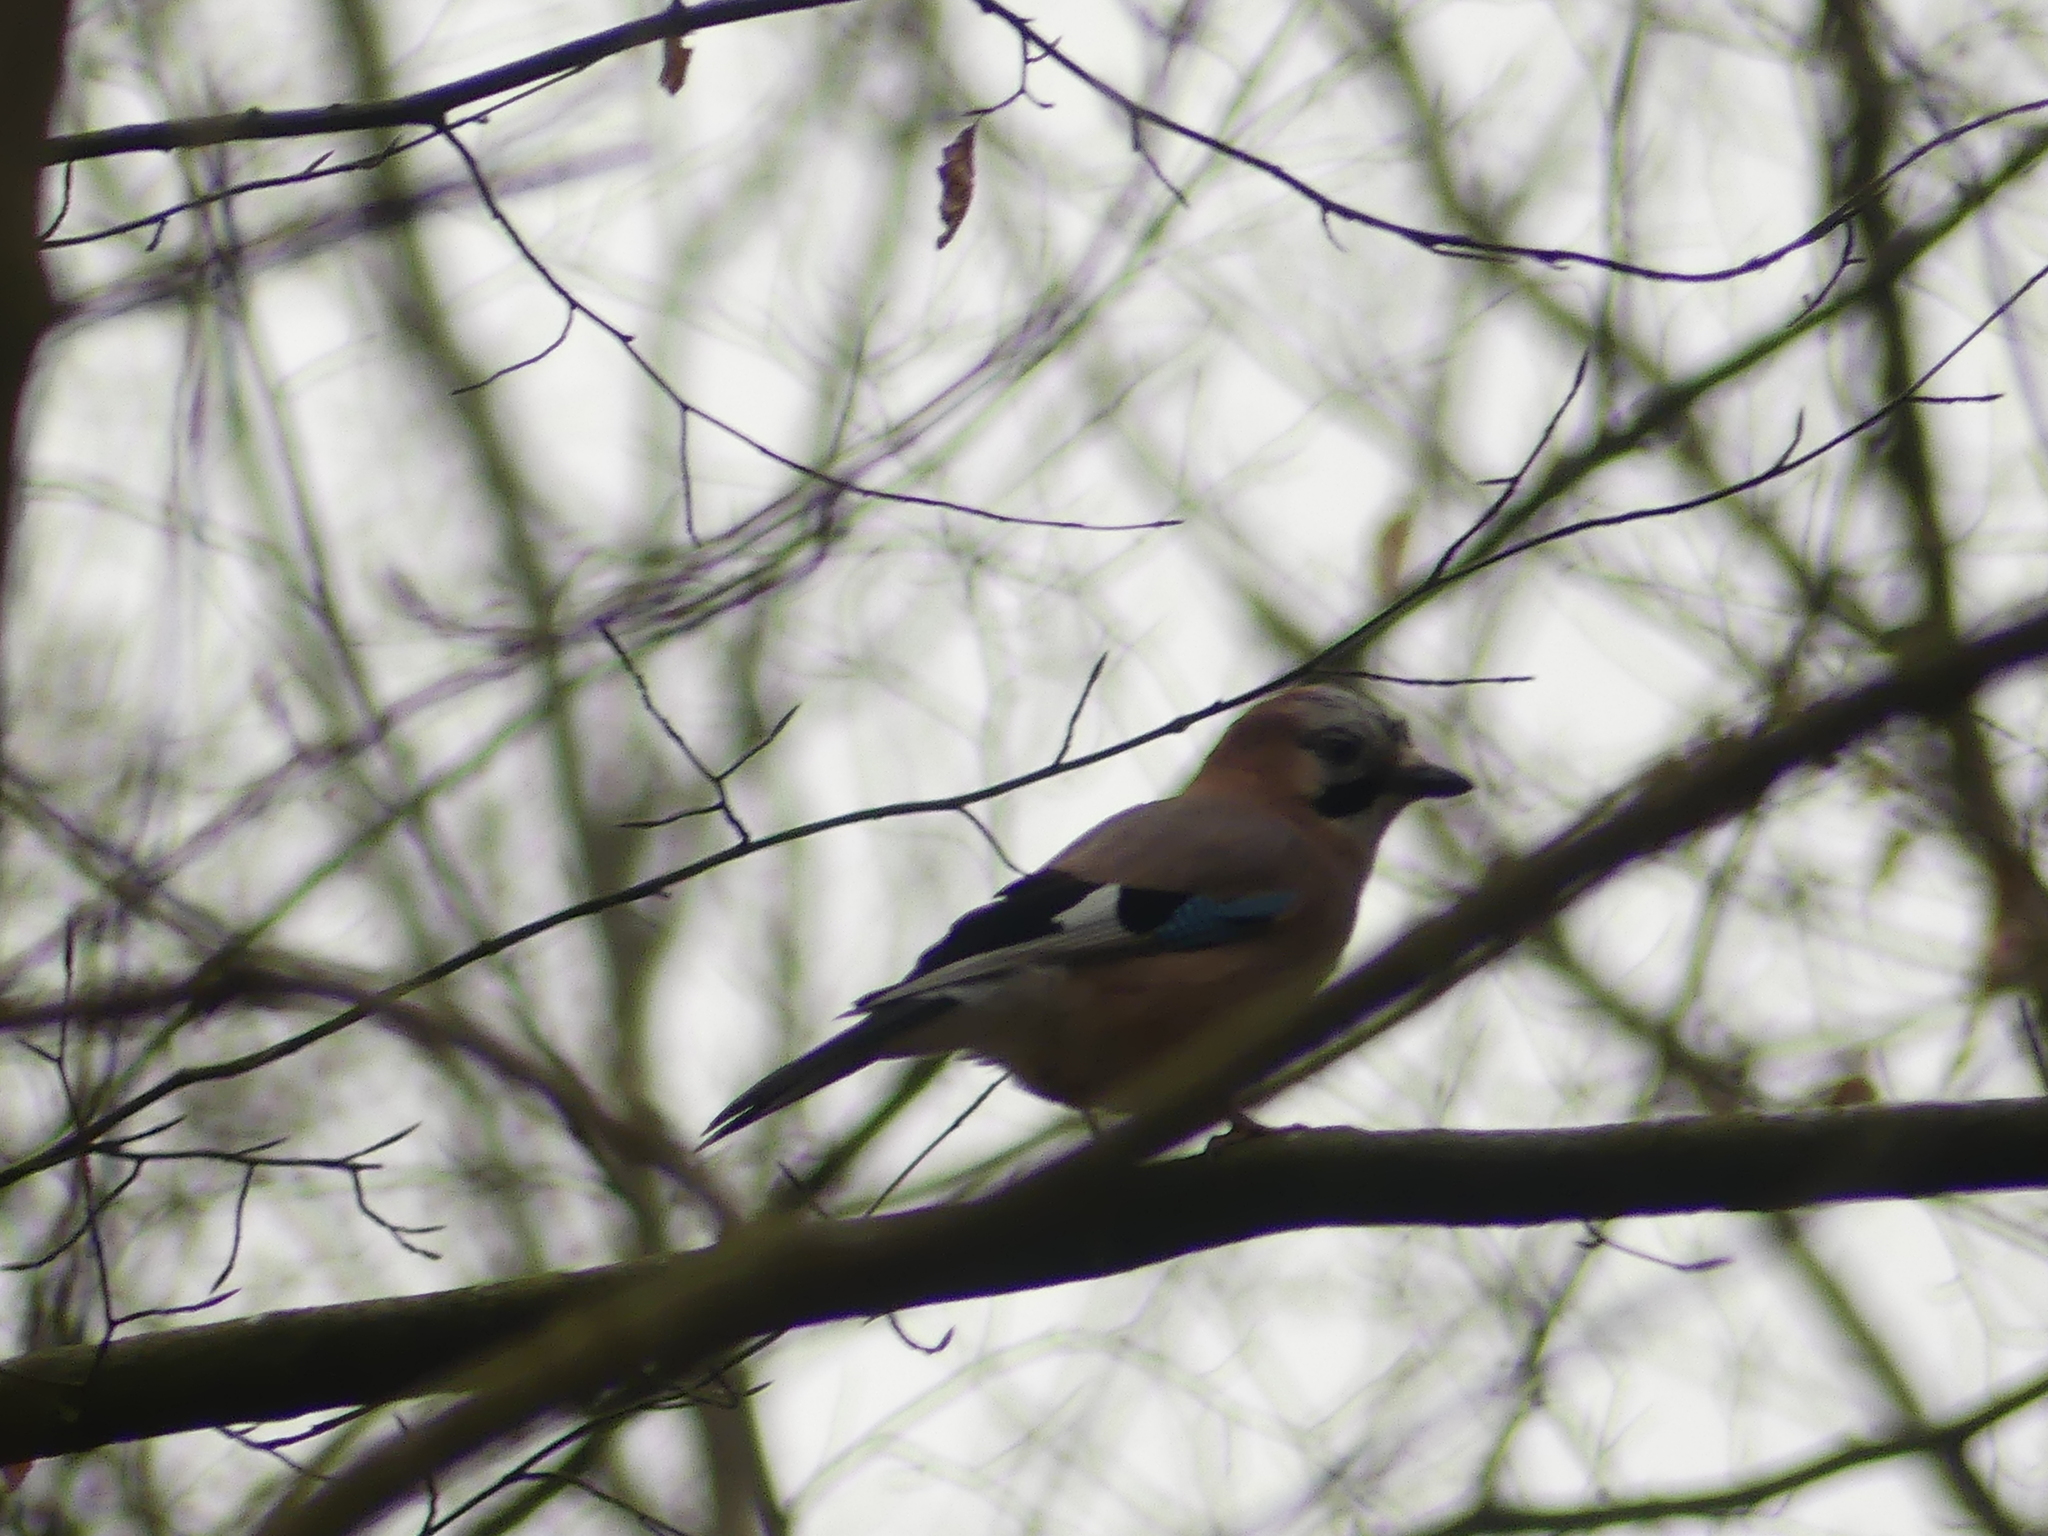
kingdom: Animalia
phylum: Chordata
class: Aves
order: Passeriformes
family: Corvidae
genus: Garrulus
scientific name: Garrulus glandarius
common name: Eurasian jay
